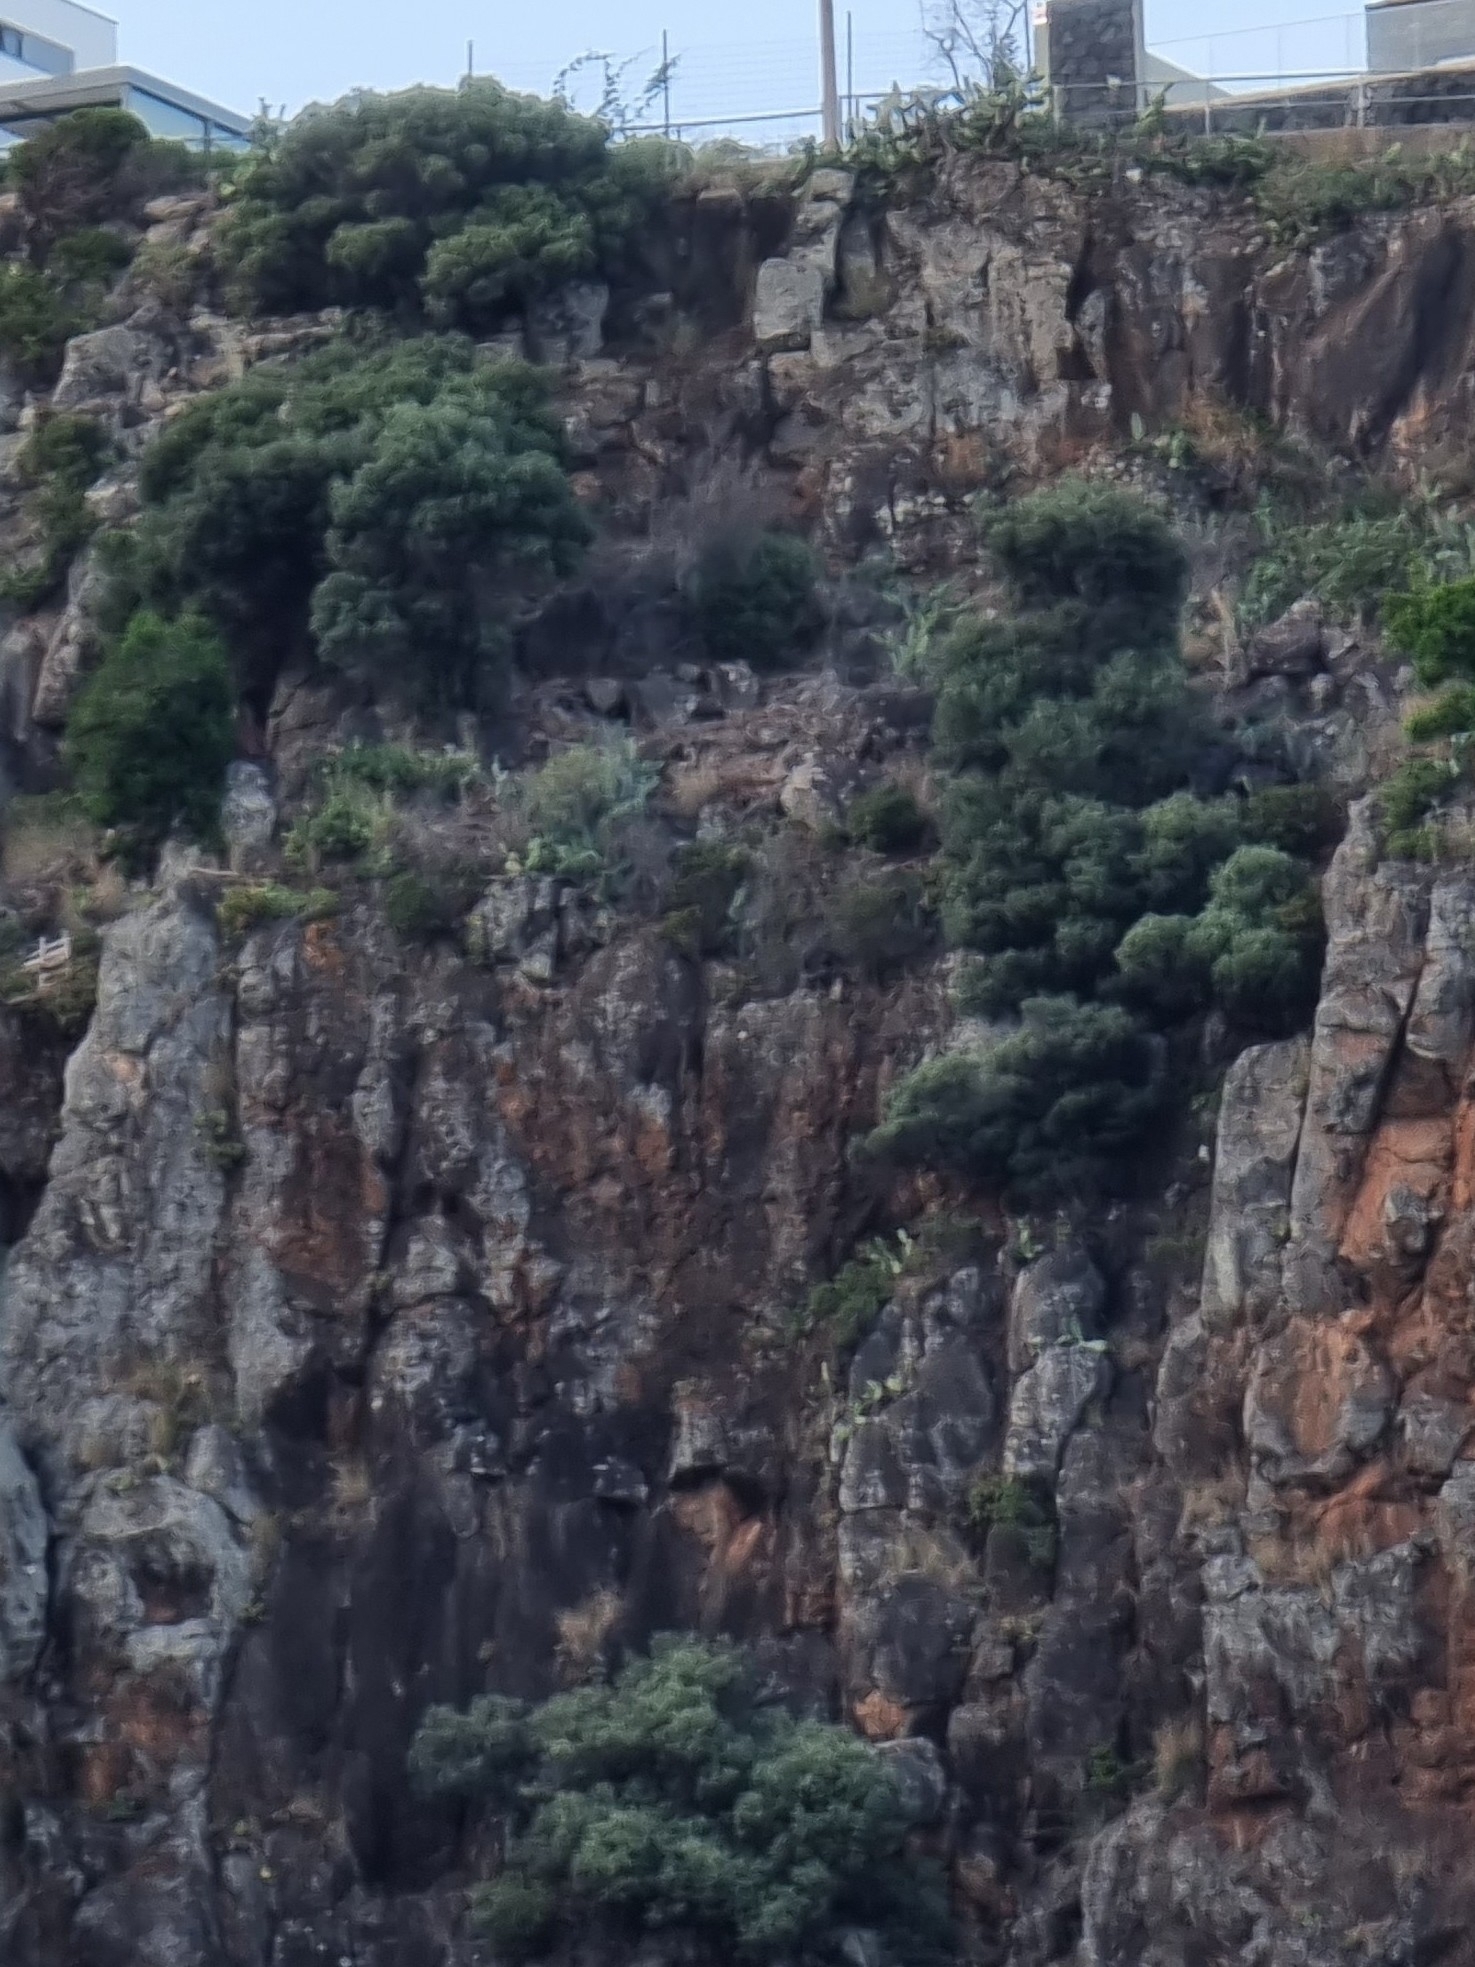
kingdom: Plantae
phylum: Tracheophyta
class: Magnoliopsida
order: Lamiales
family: Oleaceae
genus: Olea
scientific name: Olea europaea
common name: Olive
